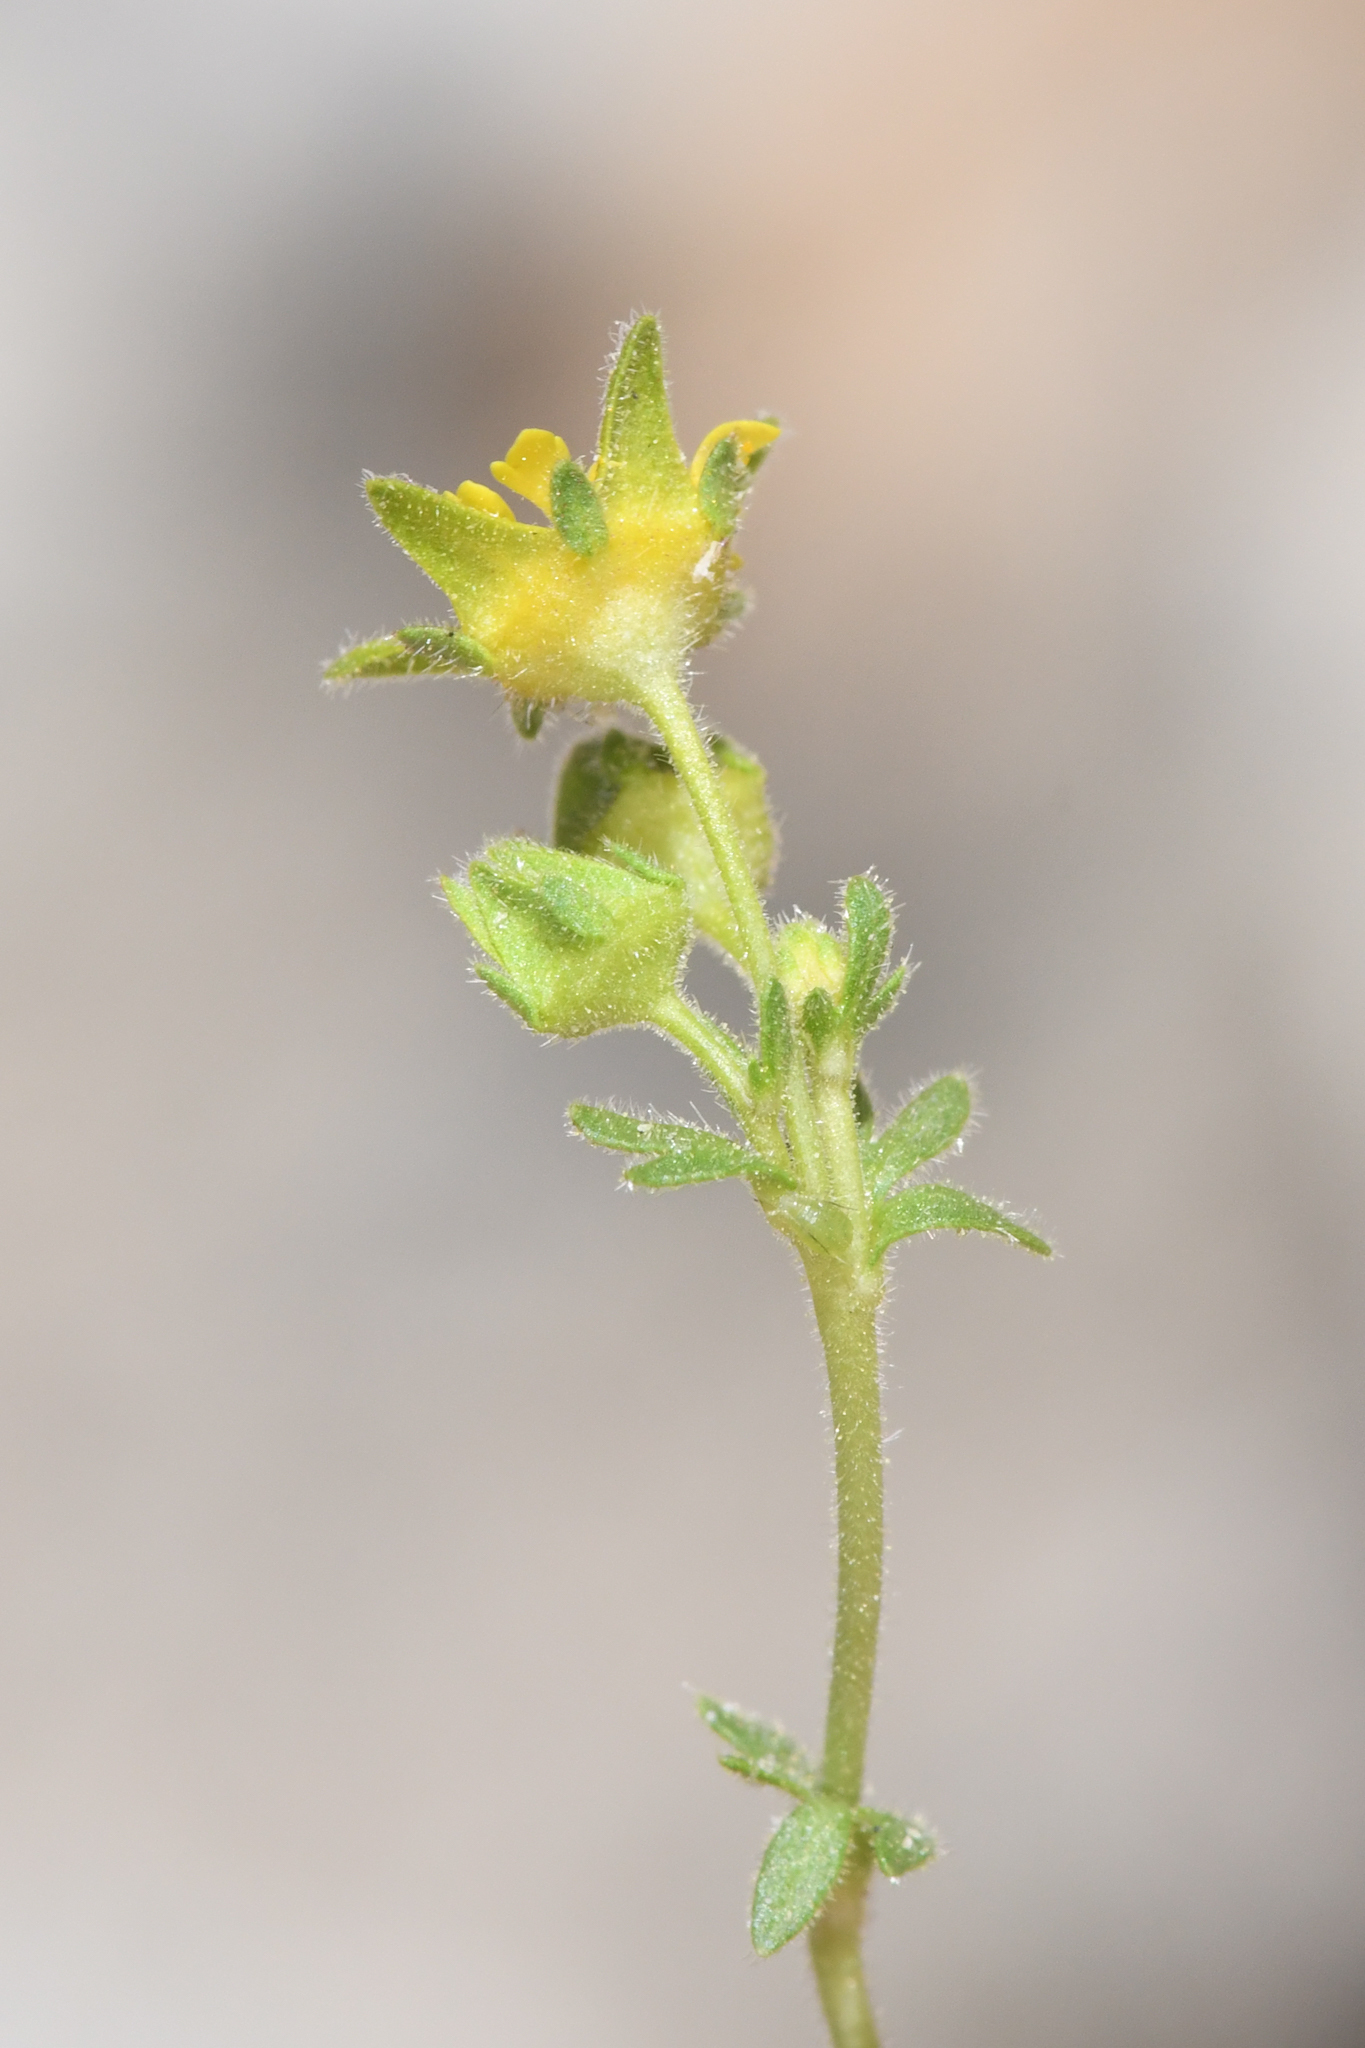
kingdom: Plantae
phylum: Tracheophyta
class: Magnoliopsida
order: Rosales
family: Rosaceae
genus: Potentilla
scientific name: Potentilla shockleyi
